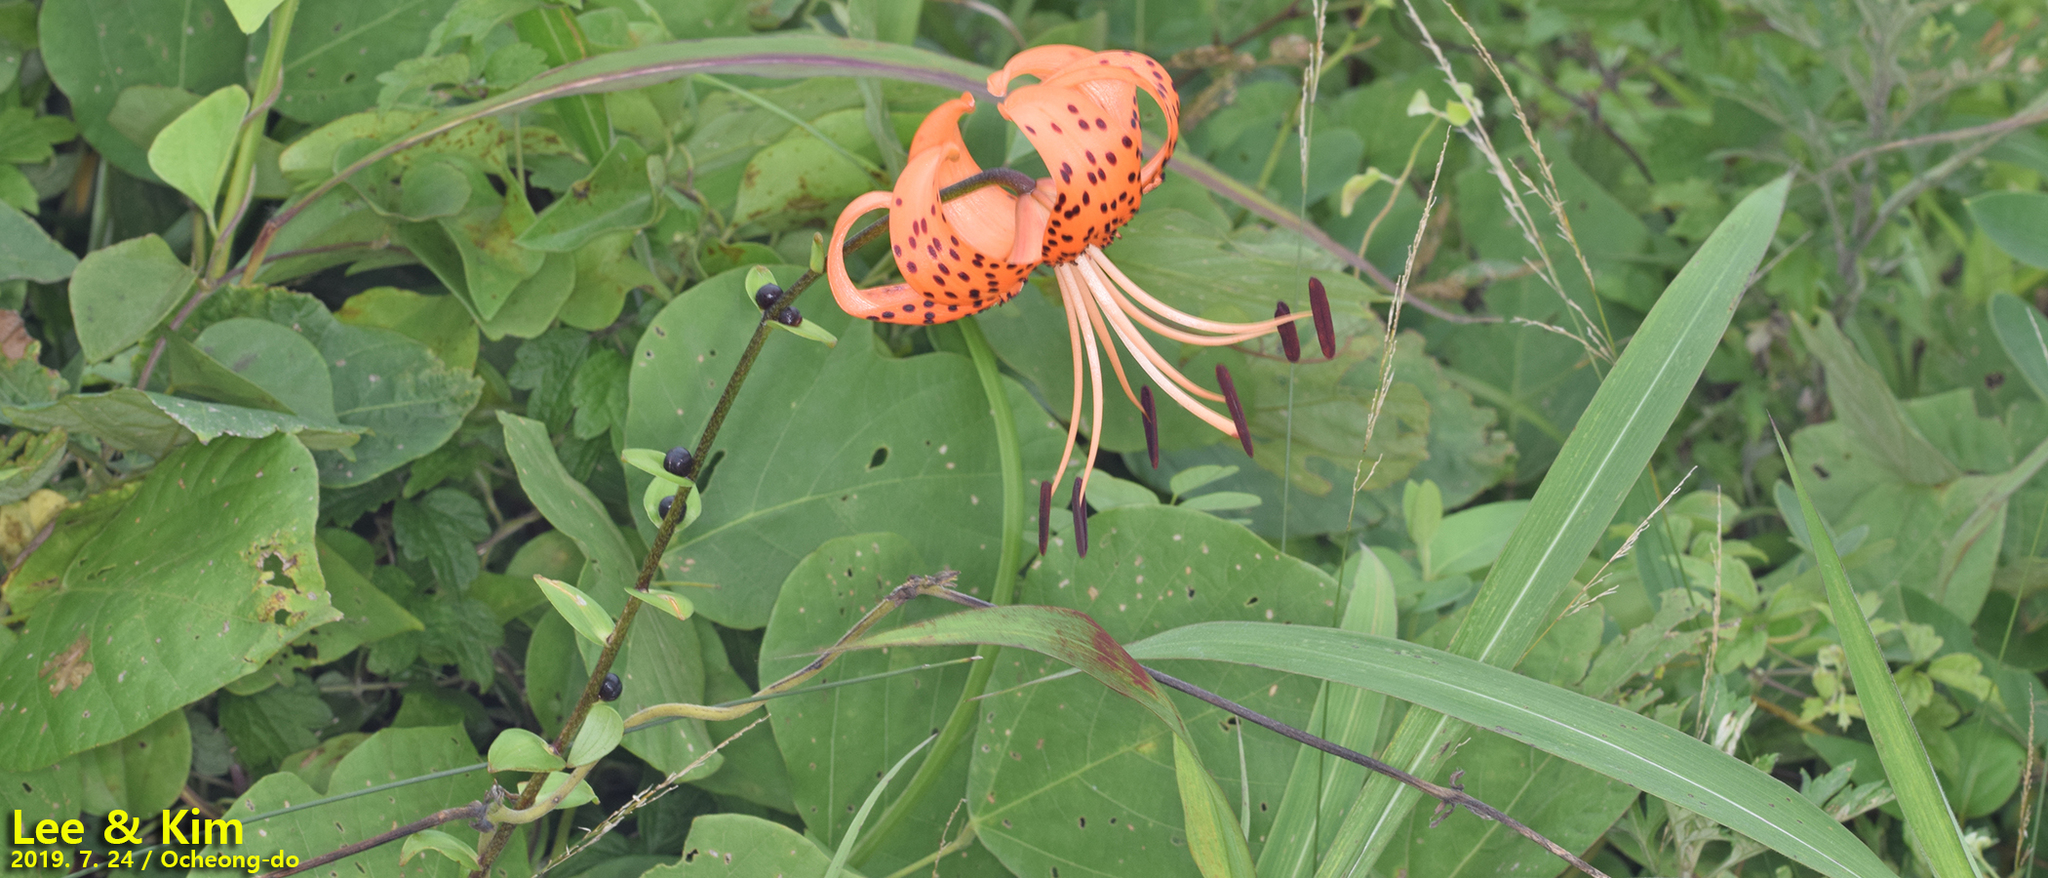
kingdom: Plantae
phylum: Tracheophyta
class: Liliopsida
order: Liliales
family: Liliaceae
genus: Lilium
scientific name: Lilium lancifolium
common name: Tiger lily
